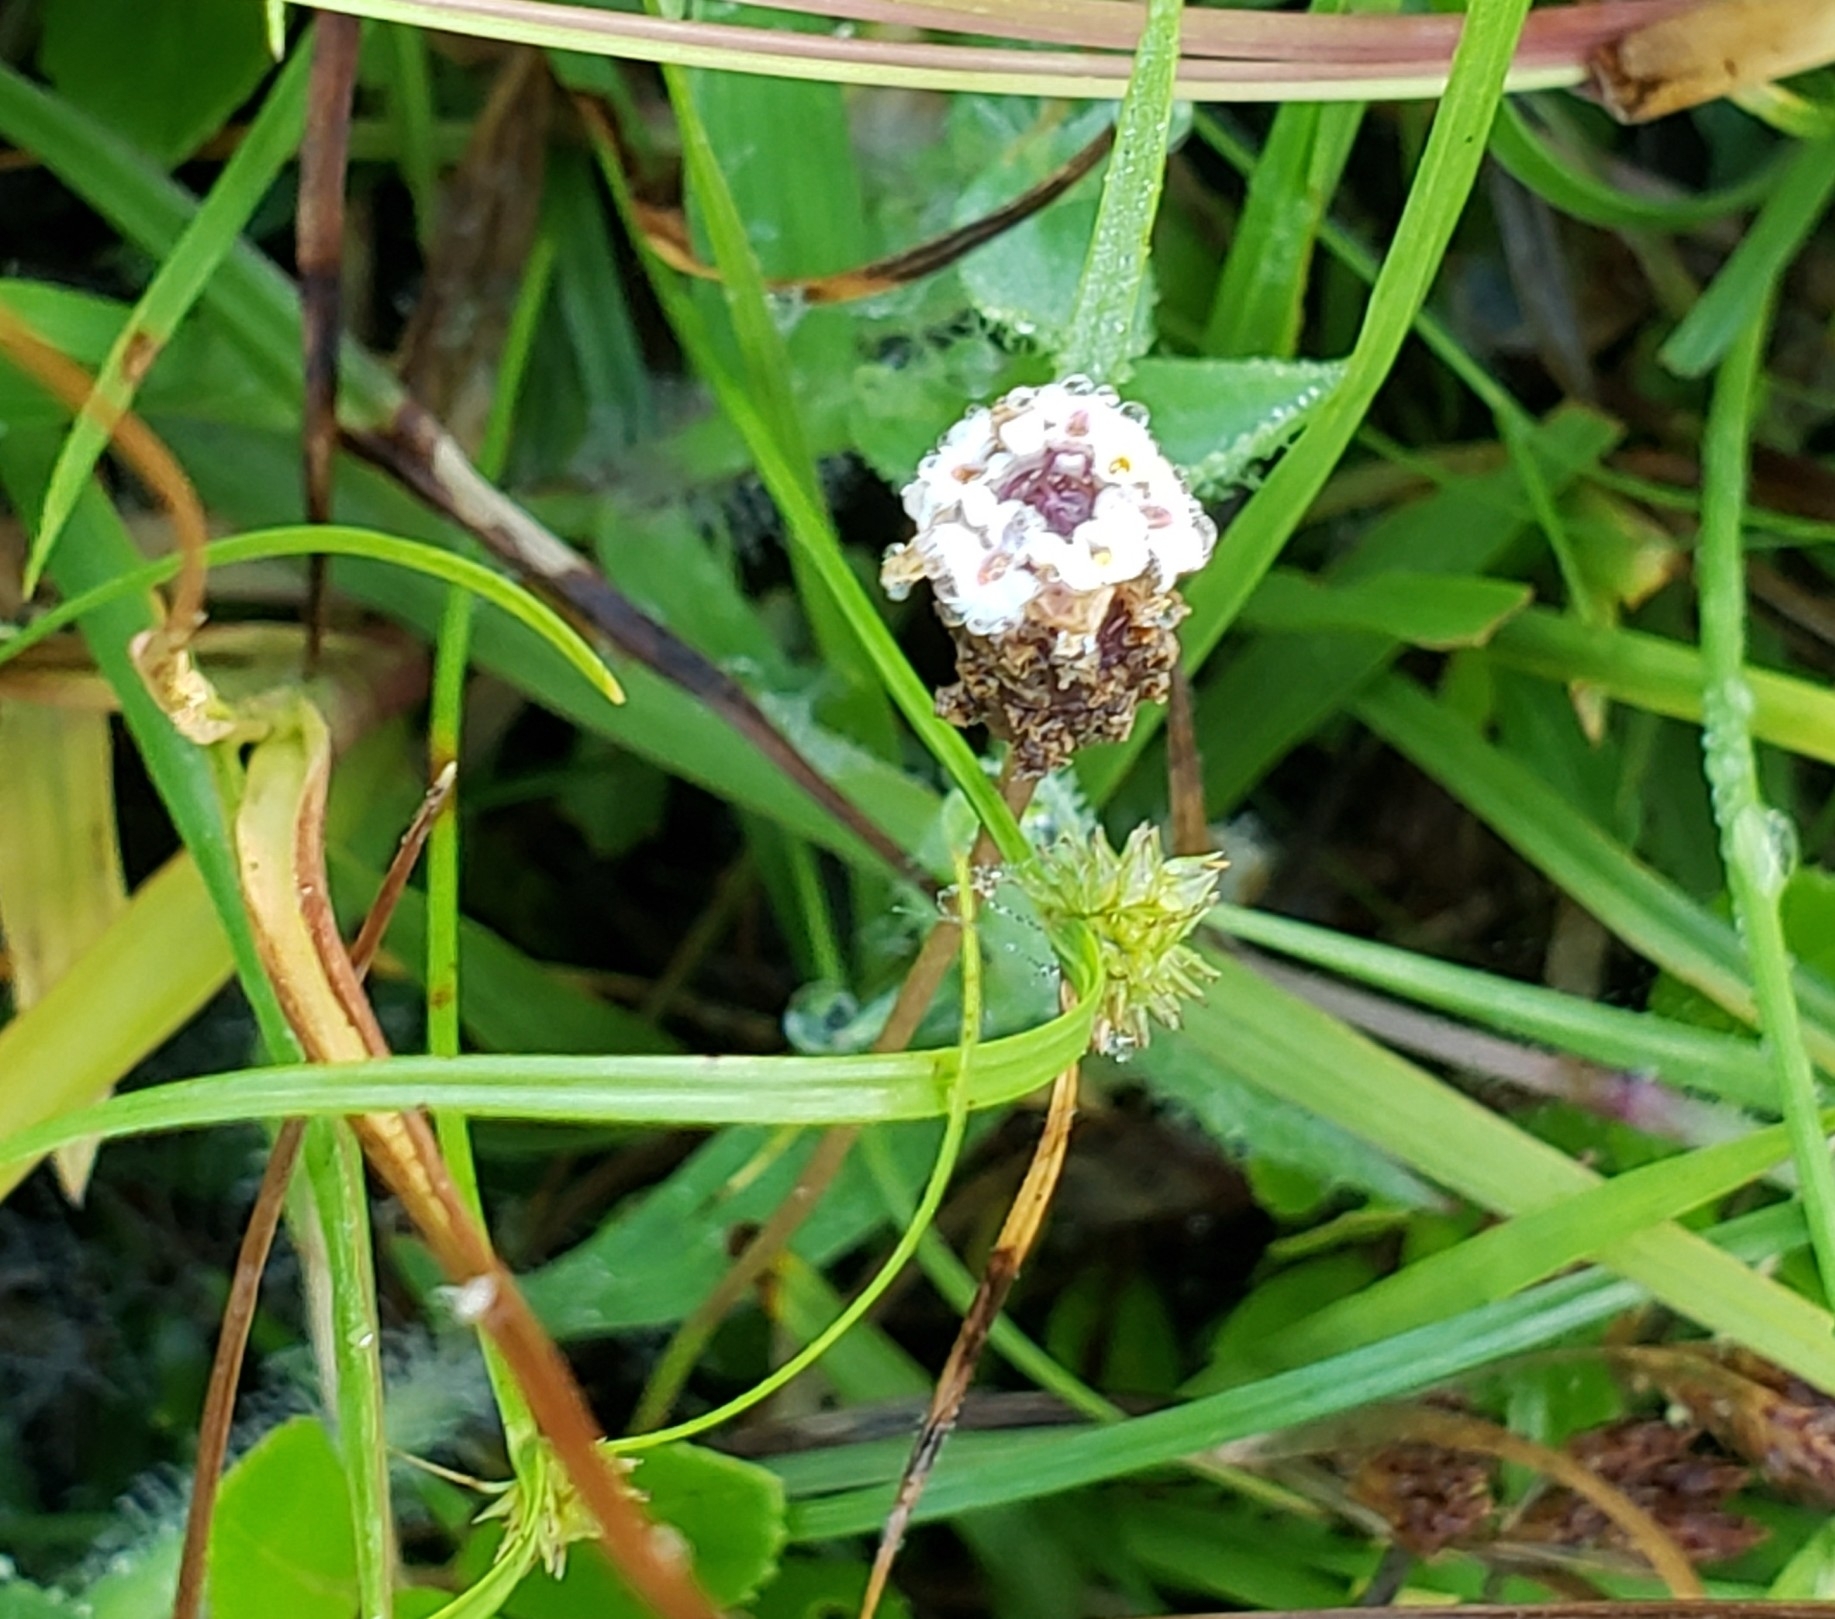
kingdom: Plantae
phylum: Tracheophyta
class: Magnoliopsida
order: Lamiales
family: Verbenaceae
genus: Phyla
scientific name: Phyla nodiflora
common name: Frogfruit
